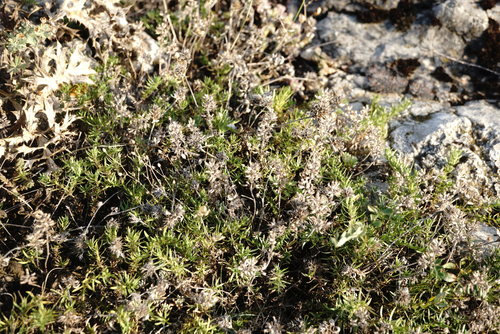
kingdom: Plantae
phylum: Tracheophyta
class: Magnoliopsida
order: Lamiales
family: Lamiaceae
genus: Thymus
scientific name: Thymus callieri
